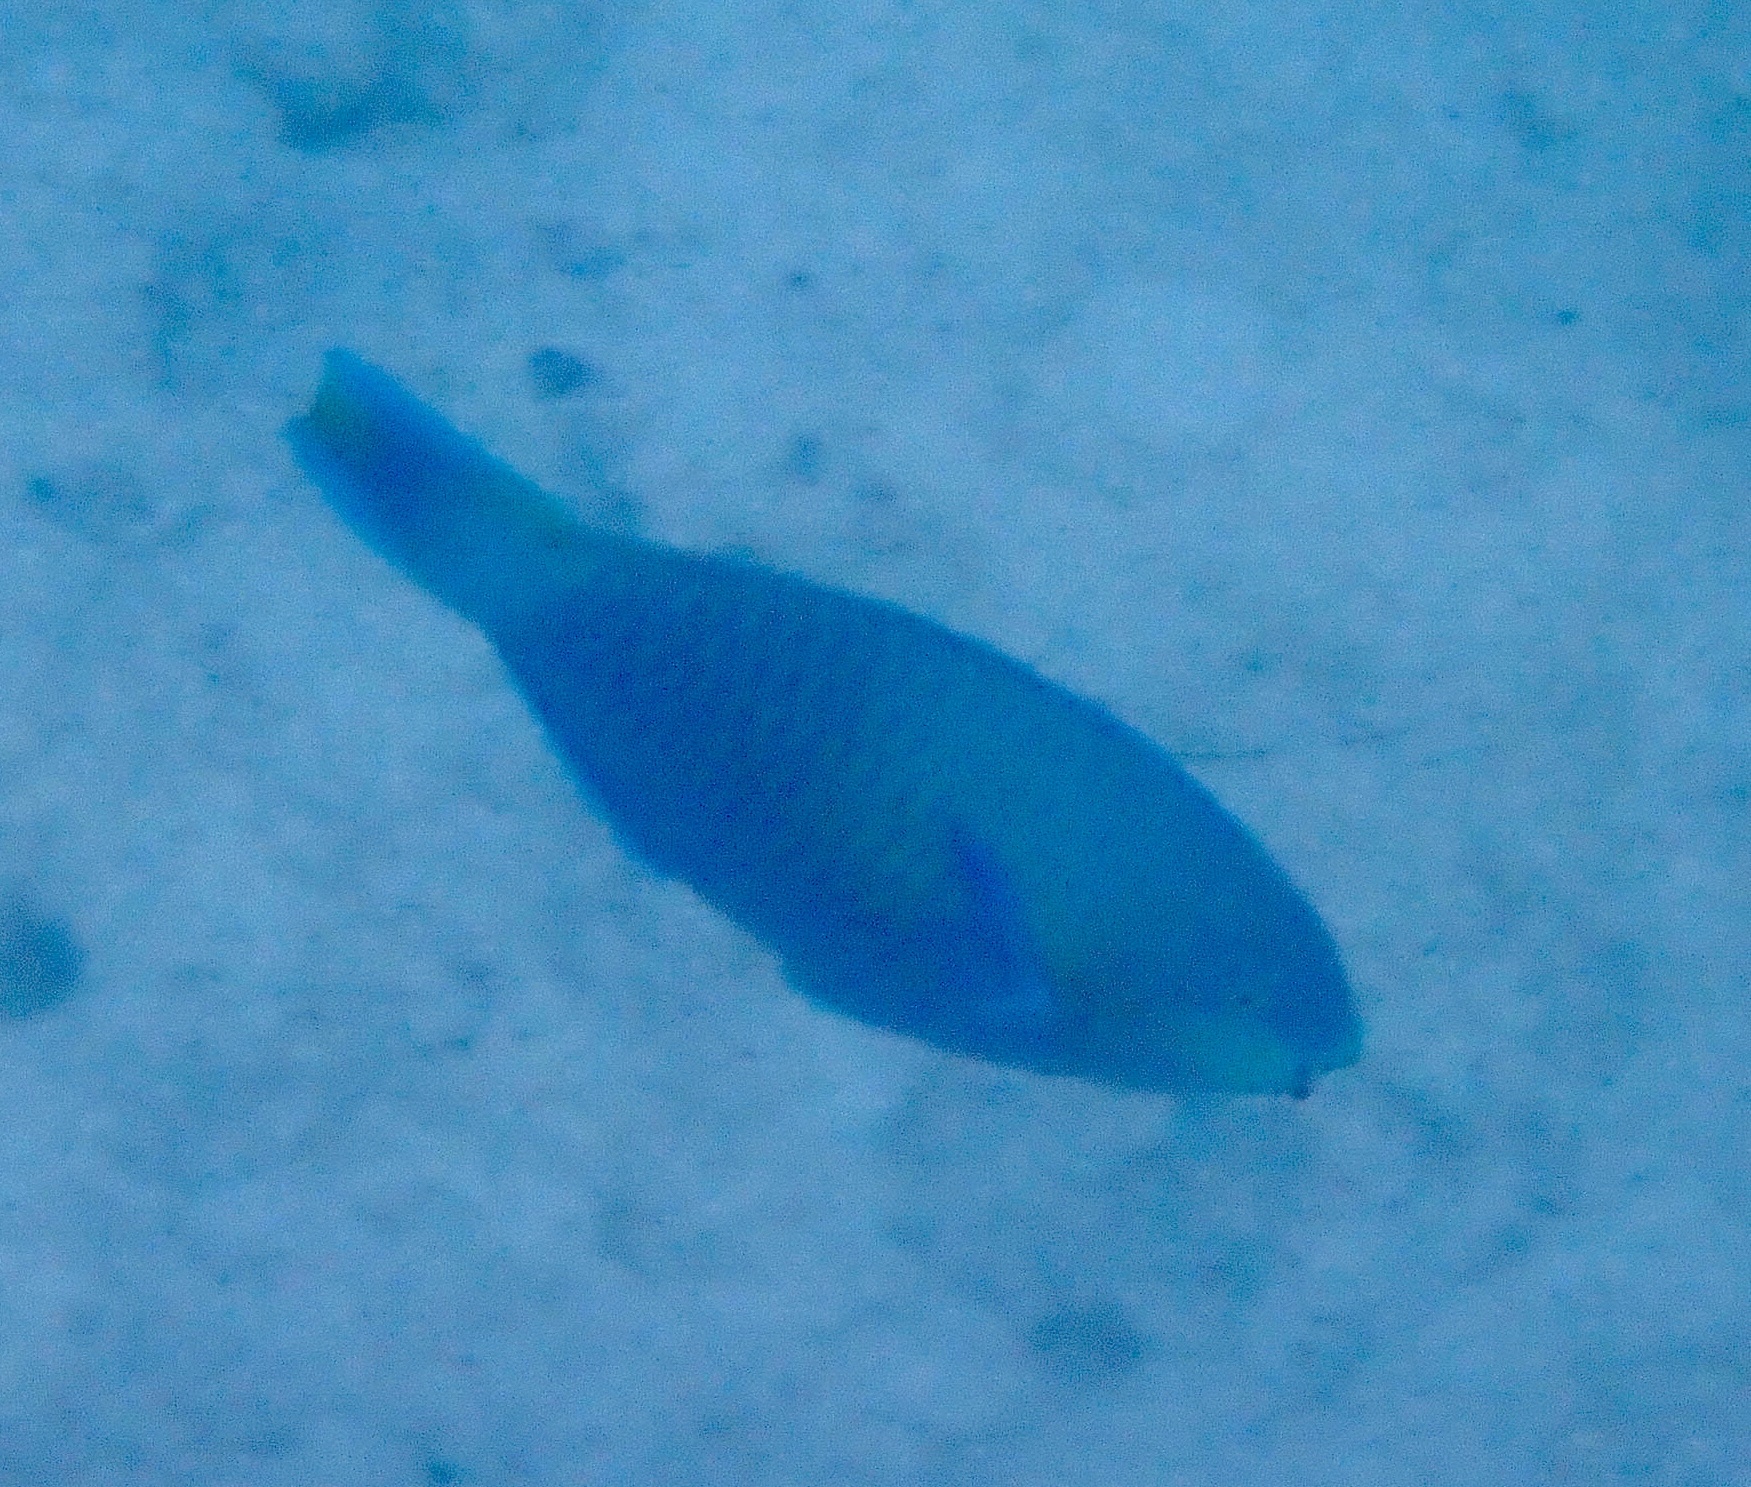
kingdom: Animalia
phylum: Chordata
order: Perciformes
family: Scaridae
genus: Scarus
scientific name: Scarus quoyi
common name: Quoy's parrotfish
